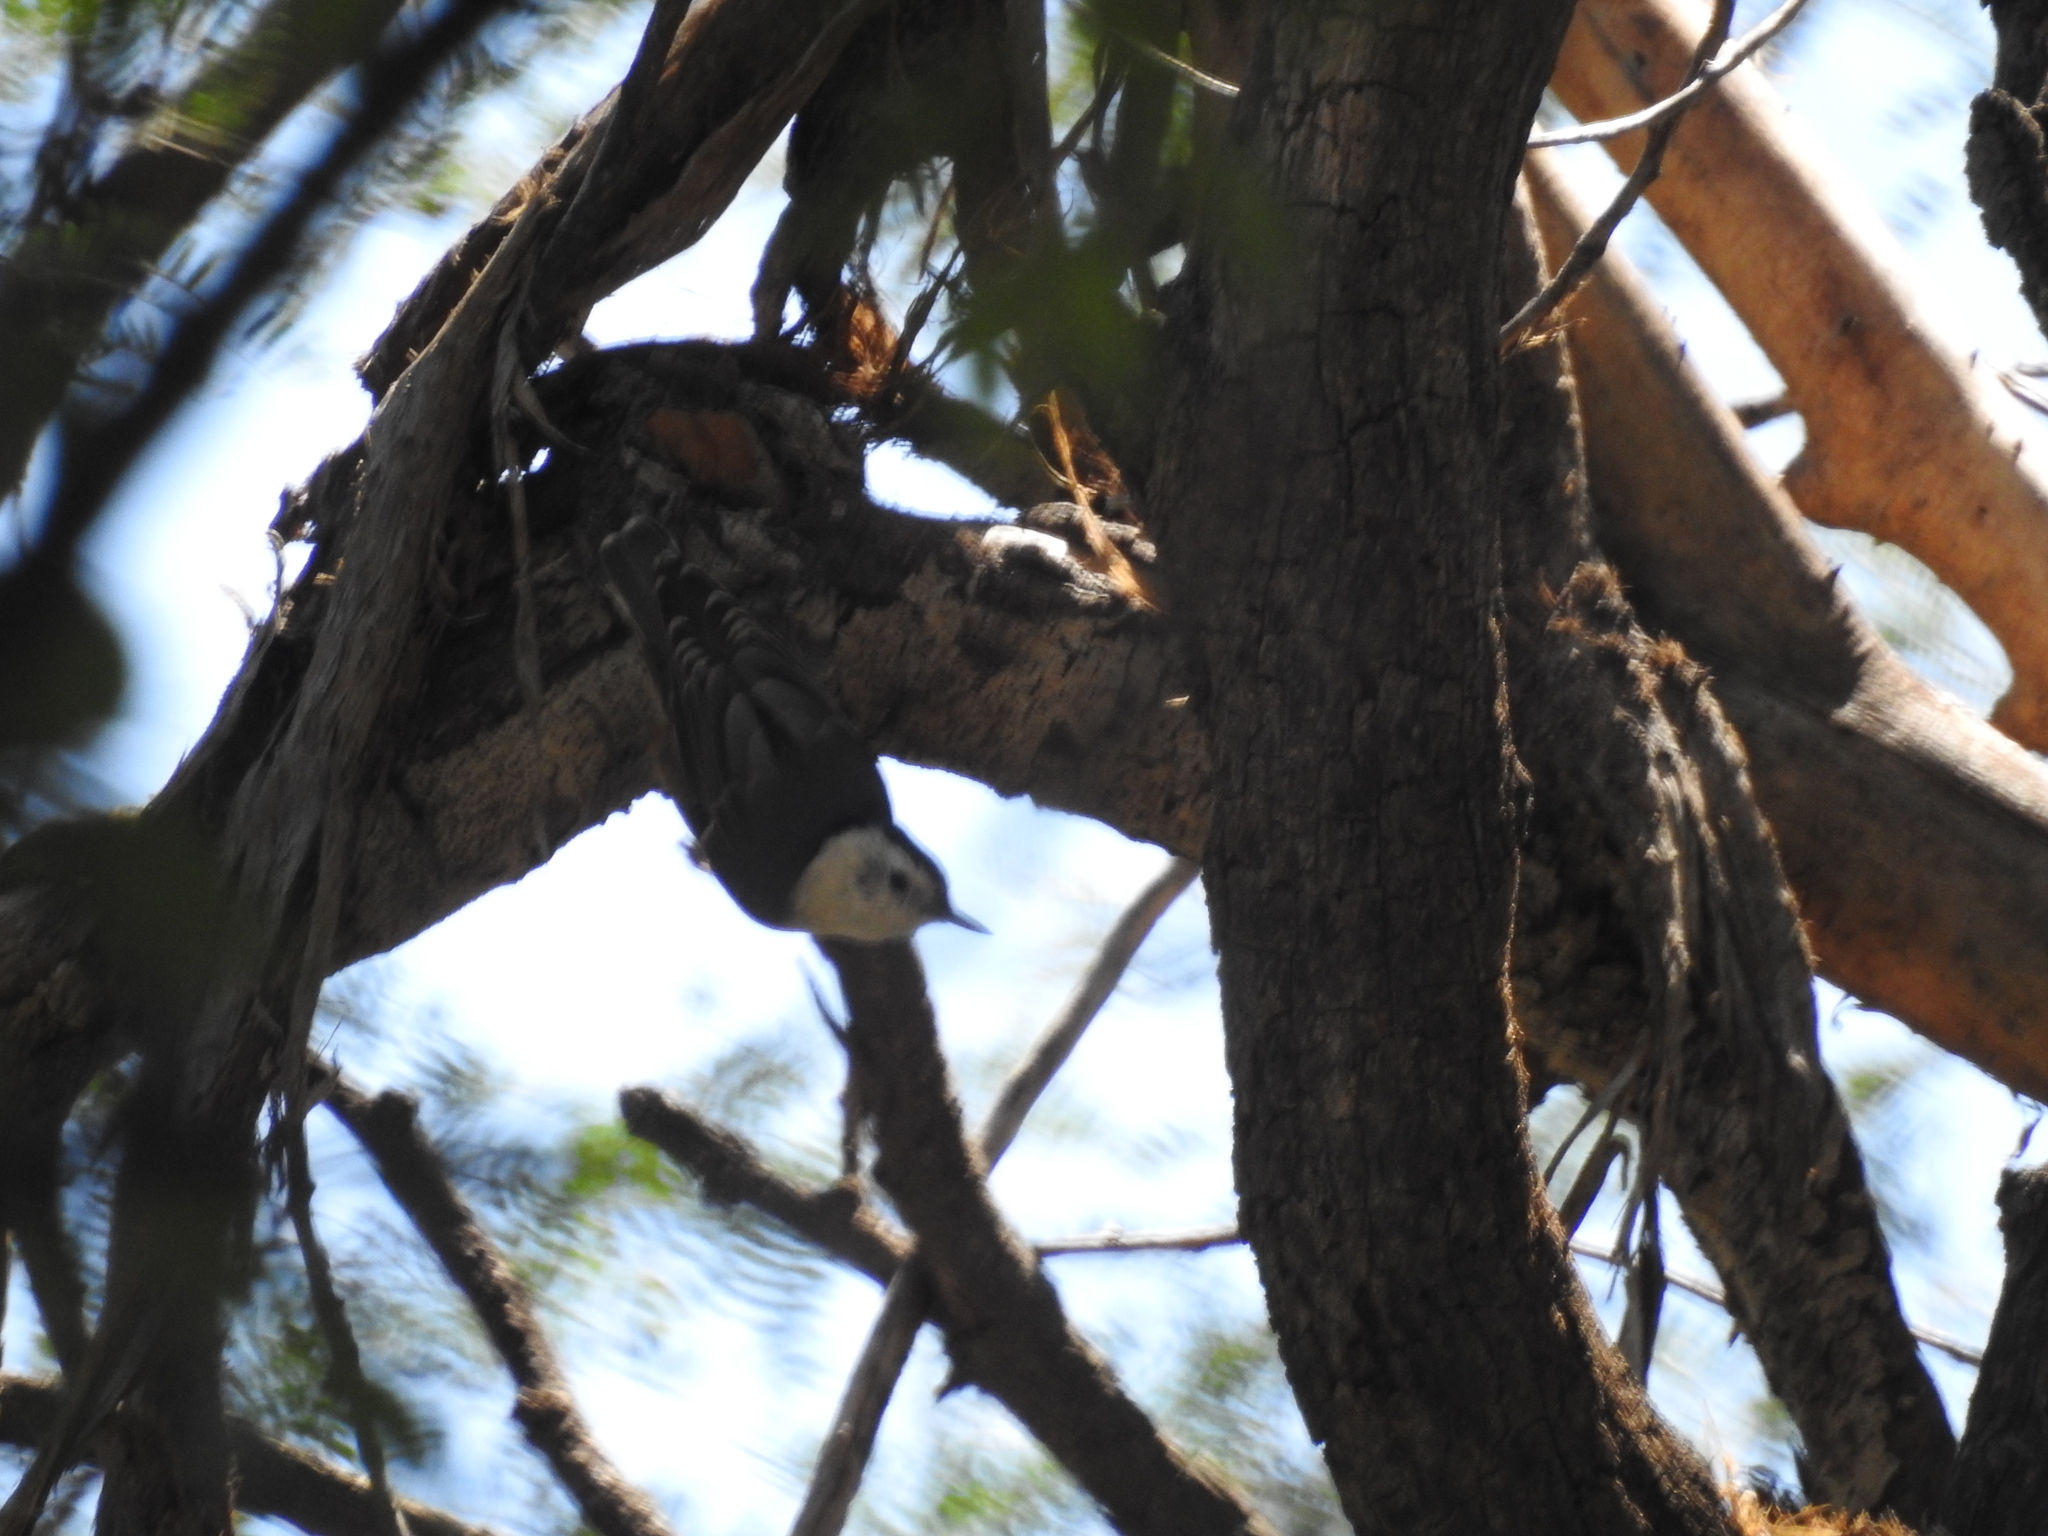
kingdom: Animalia
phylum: Chordata
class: Aves
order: Passeriformes
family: Sittidae
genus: Sitta
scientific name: Sitta carolinensis
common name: White-breasted nuthatch
